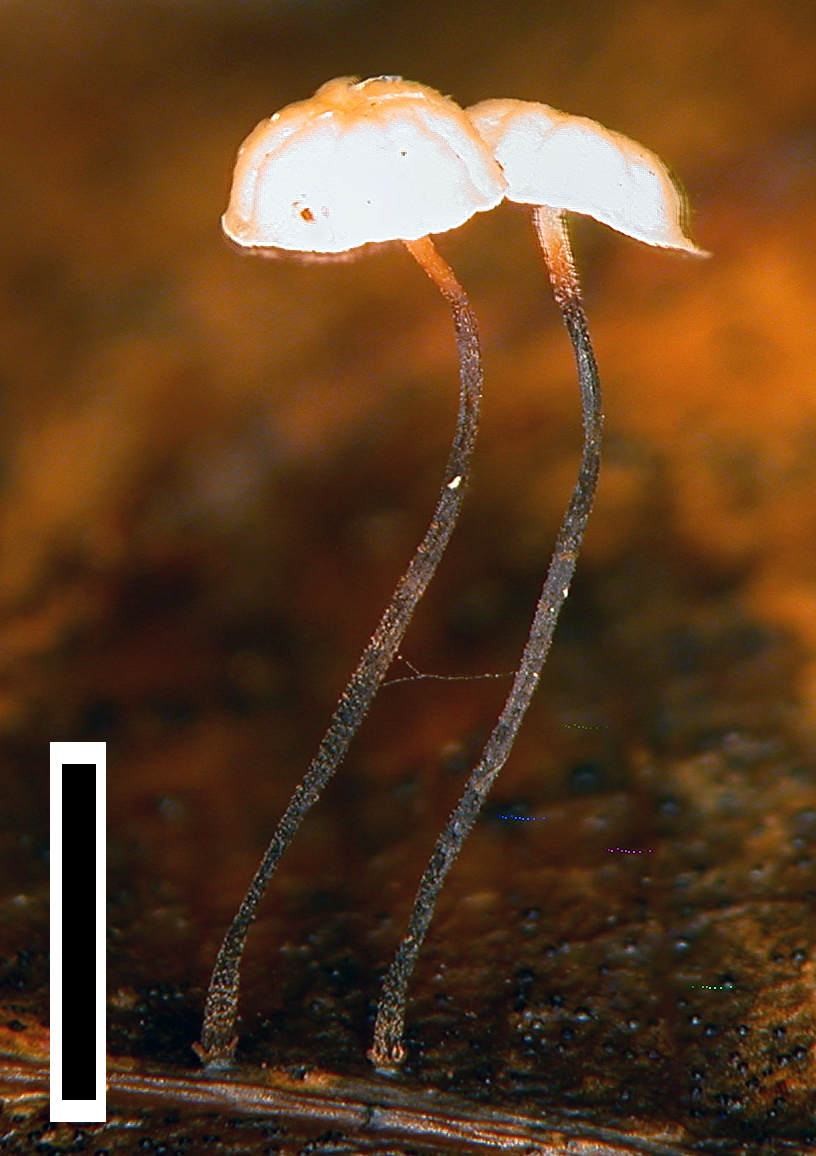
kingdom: Fungi
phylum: Basidiomycota
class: Agaricomycetes
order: Agaricales
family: Physalacriaceae
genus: Gloiocephala
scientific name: Gloiocephala xanthocephala
